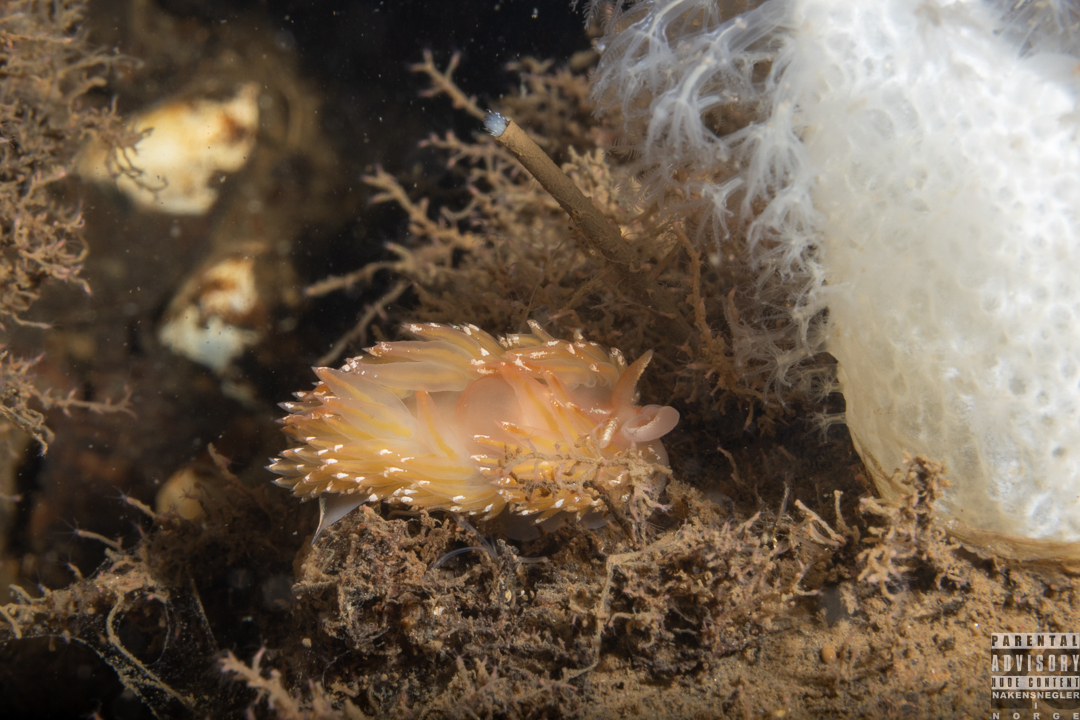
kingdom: Animalia
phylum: Mollusca
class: Gastropoda
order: Nudibranchia
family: Facelinidae
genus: Facelina
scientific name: Facelina bostoniensis
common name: Boston facelina
